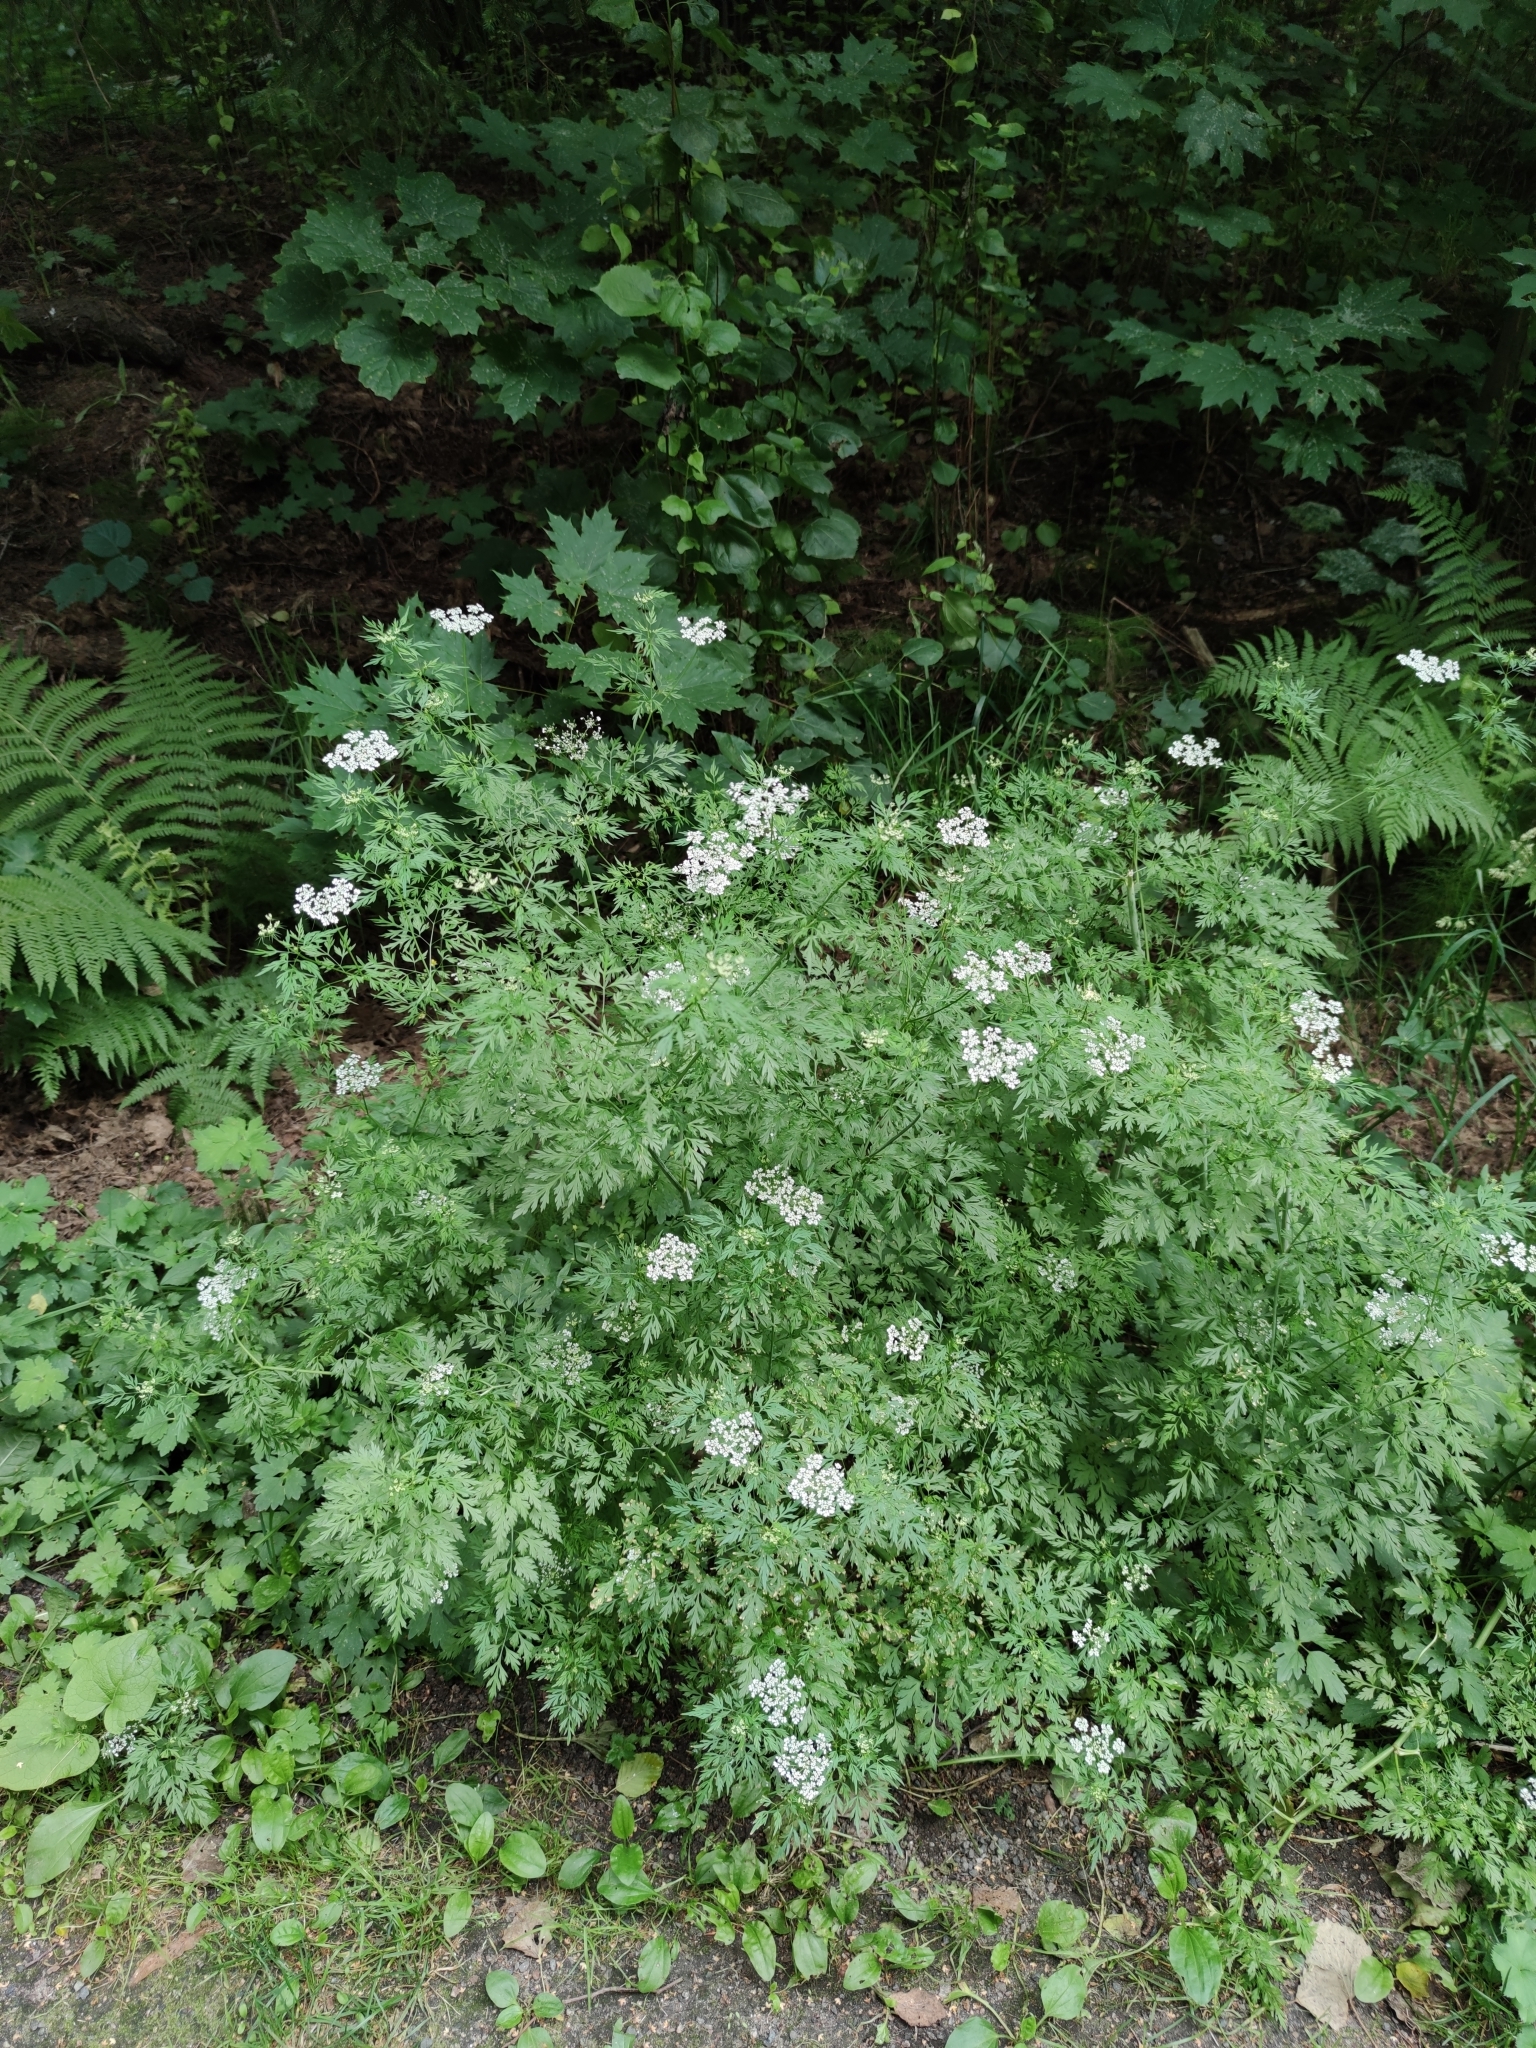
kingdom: Plantae
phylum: Tracheophyta
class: Magnoliopsida
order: Apiales
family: Apiaceae
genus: Aethusa
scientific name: Aethusa cynapium
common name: Fool's parsley
